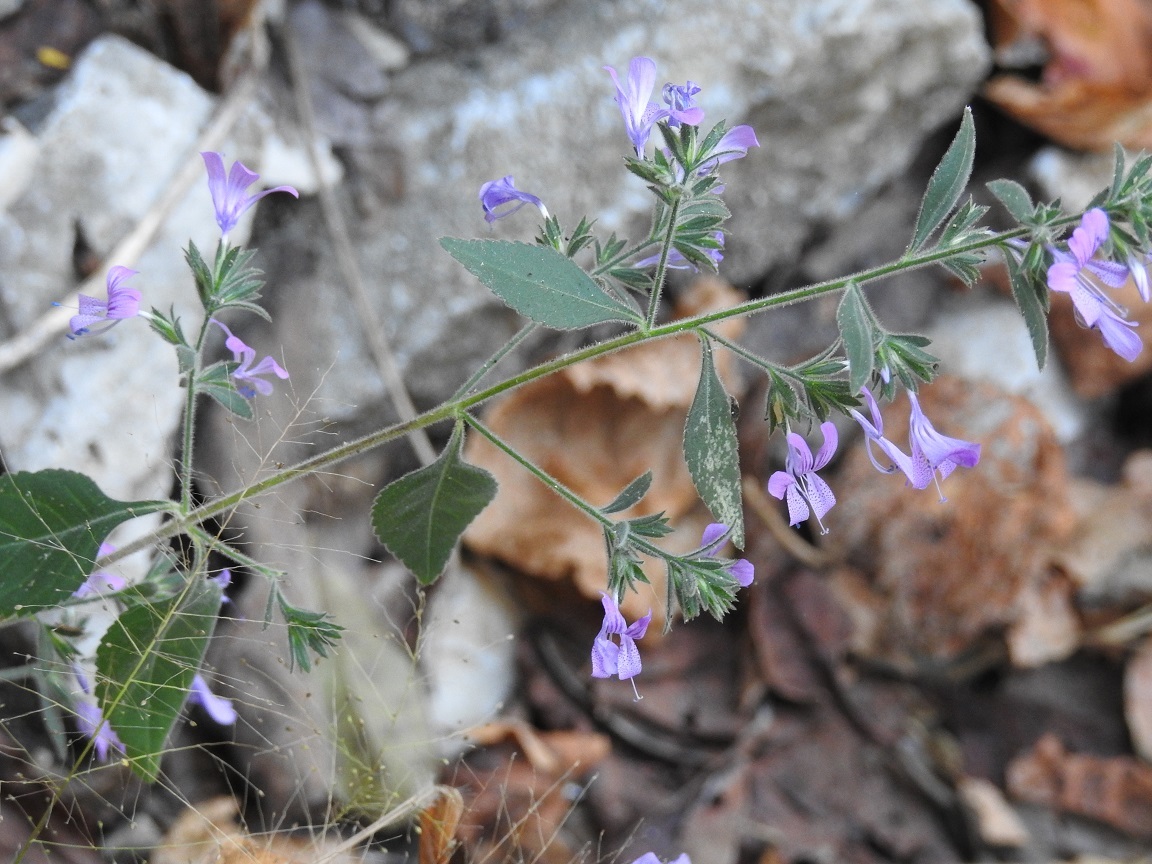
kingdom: Plantae
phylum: Tracheophyta
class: Magnoliopsida
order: Ericales
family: Polemoniaceae
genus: Loeselia
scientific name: Loeselia glandulosa
